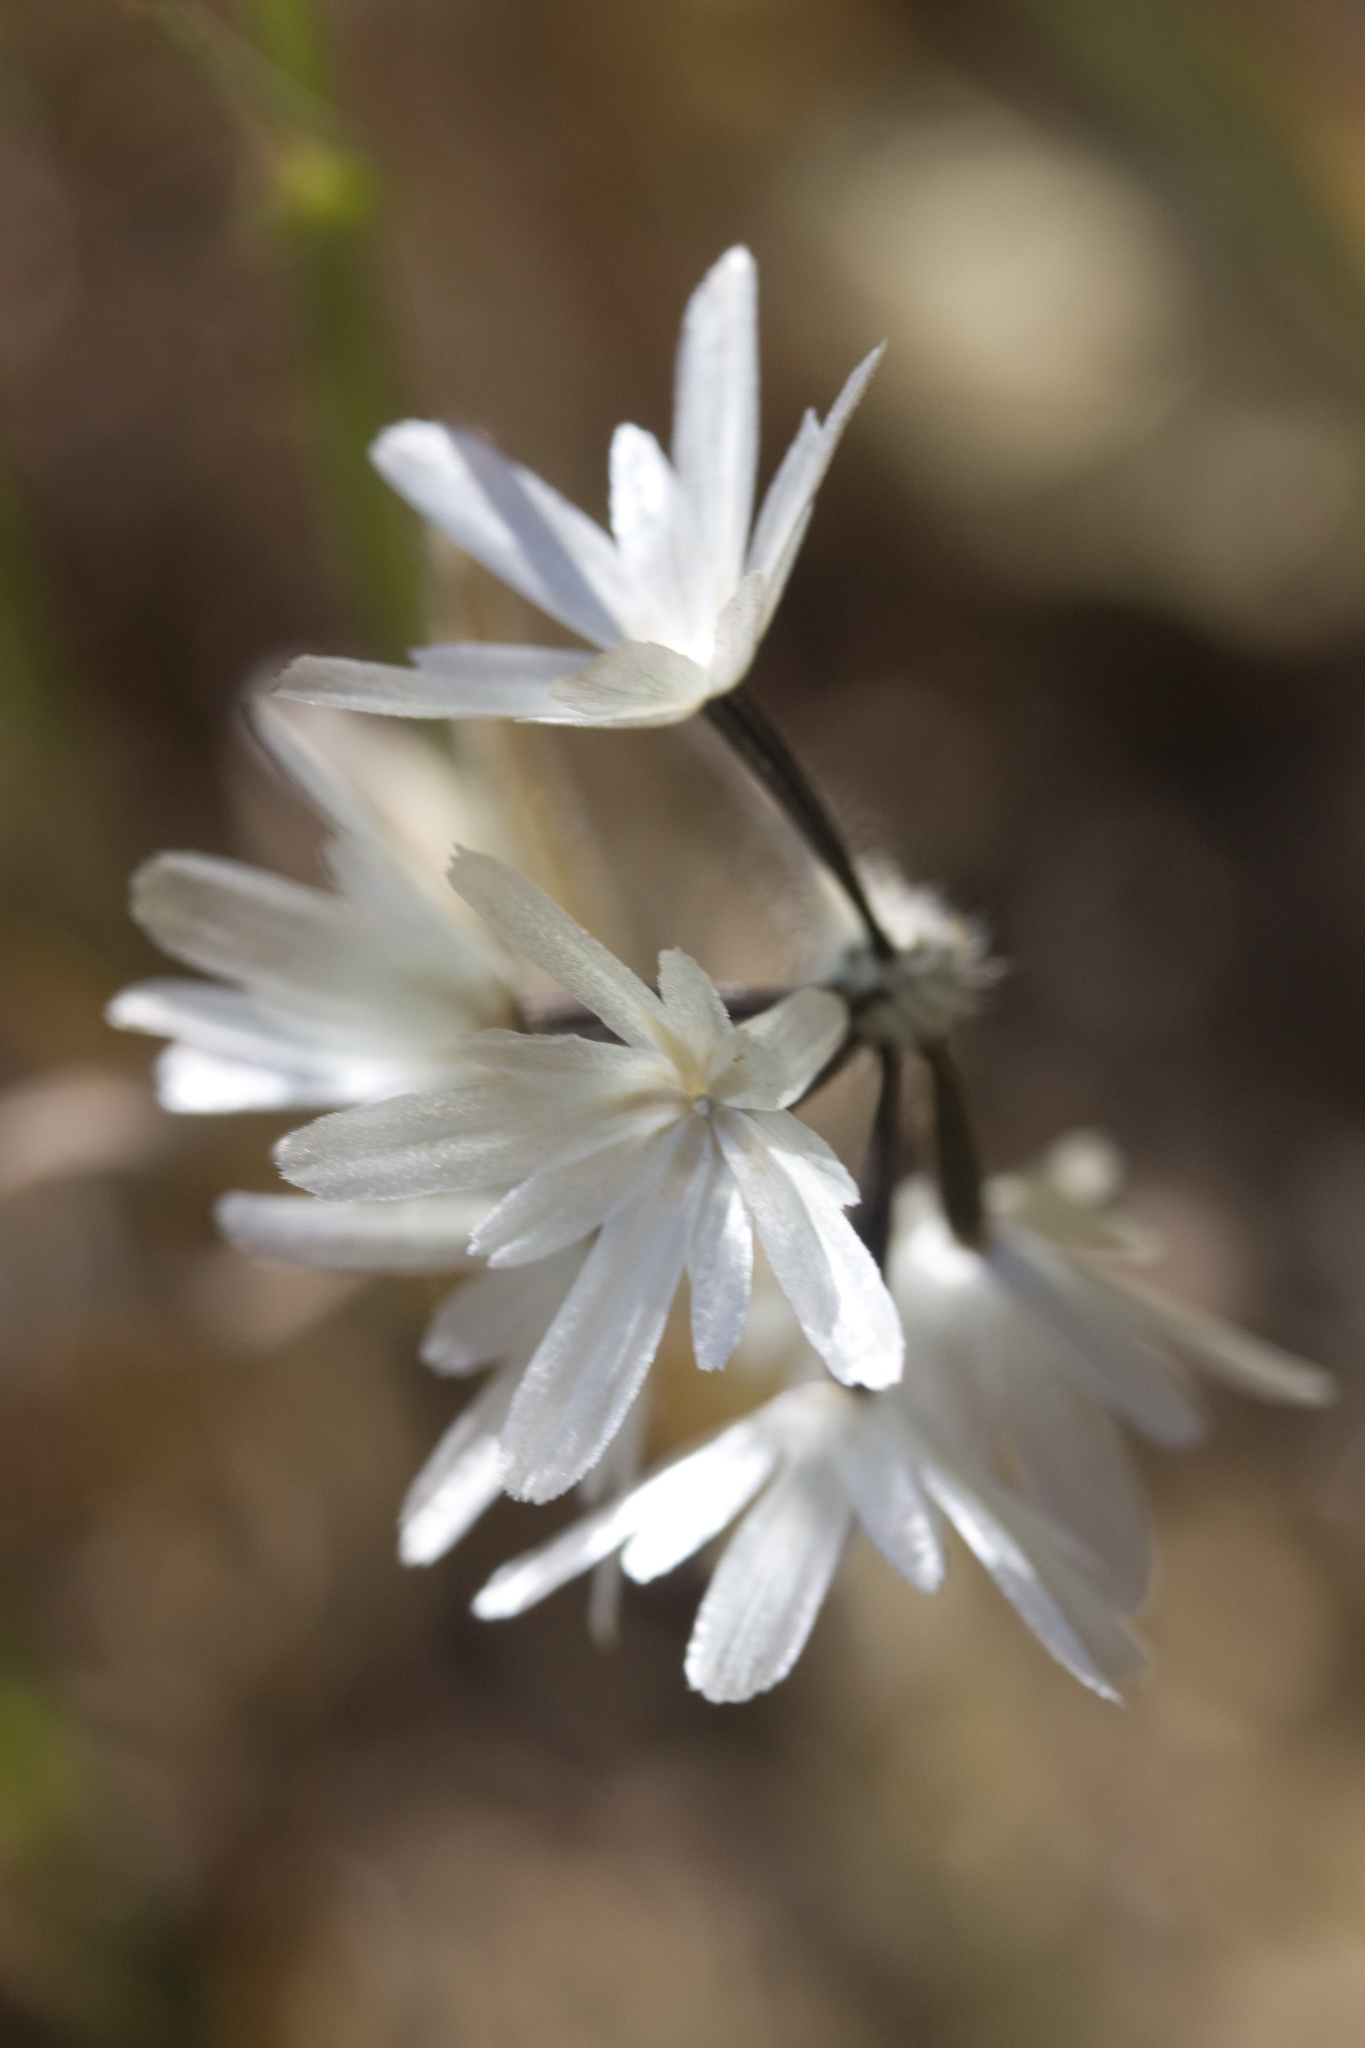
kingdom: Plantae
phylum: Tracheophyta
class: Magnoliopsida
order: Asterales
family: Asteraceae
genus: Achyrachaena
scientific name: Achyrachaena mollis
